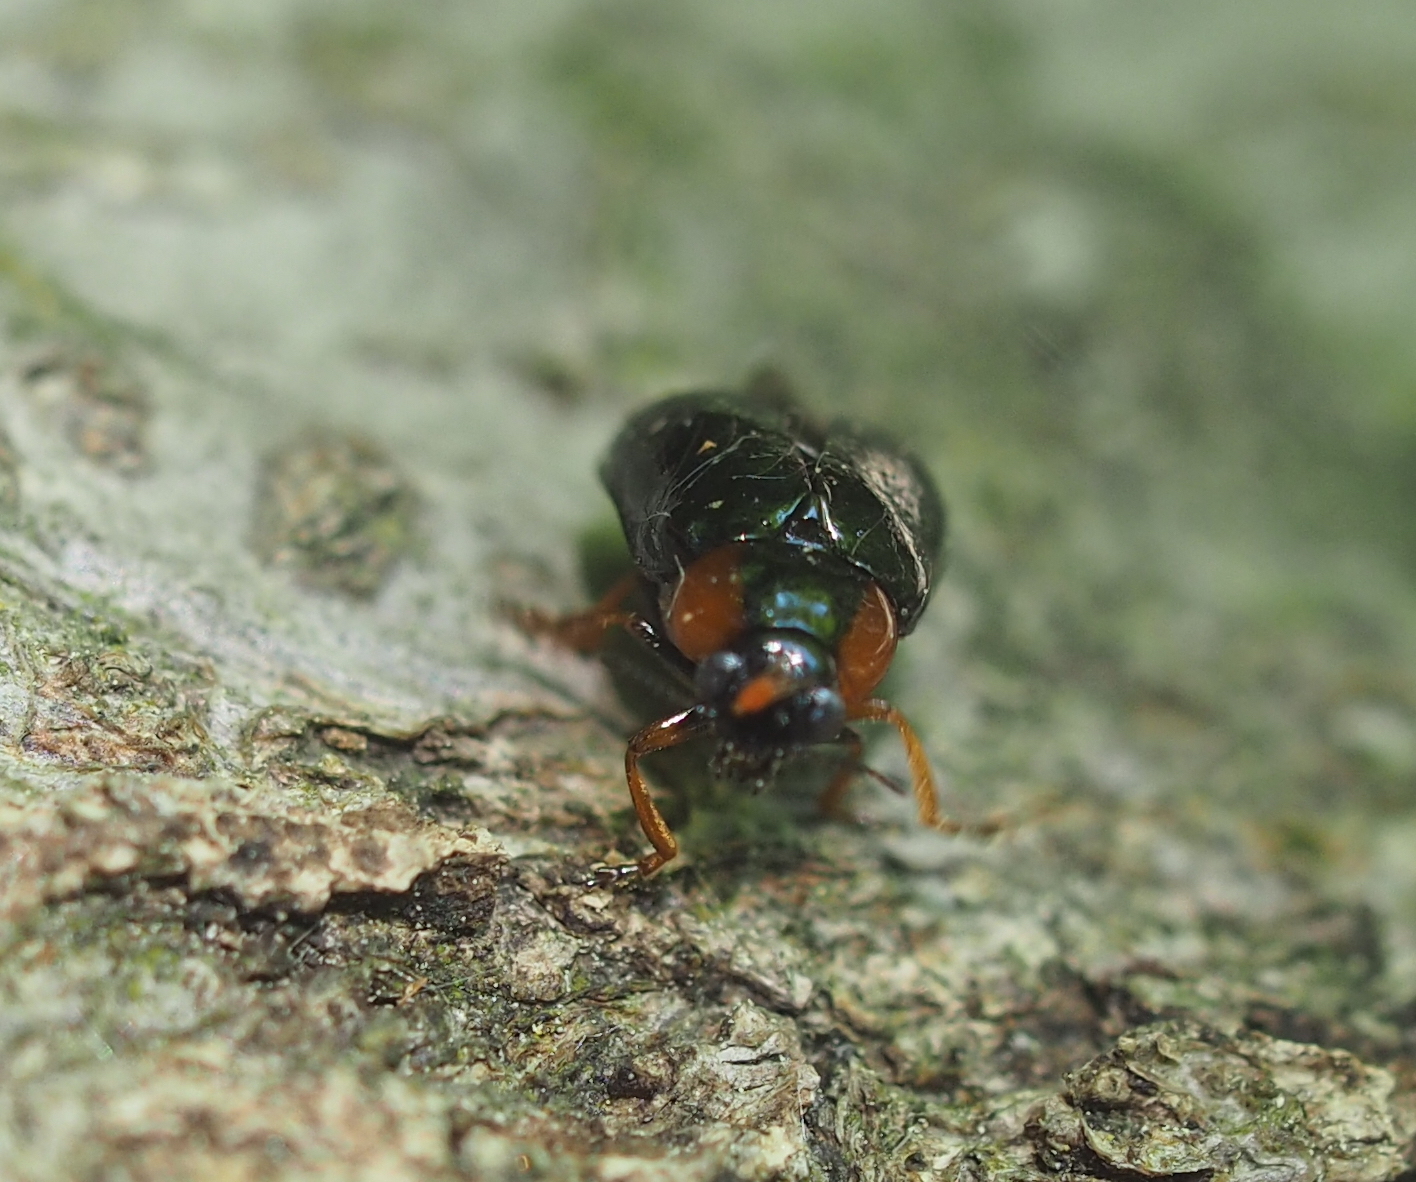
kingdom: Animalia
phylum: Arthropoda
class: Insecta
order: Coleoptera
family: Chrysomelidae
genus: Smaragdina
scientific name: Smaragdina aurita
